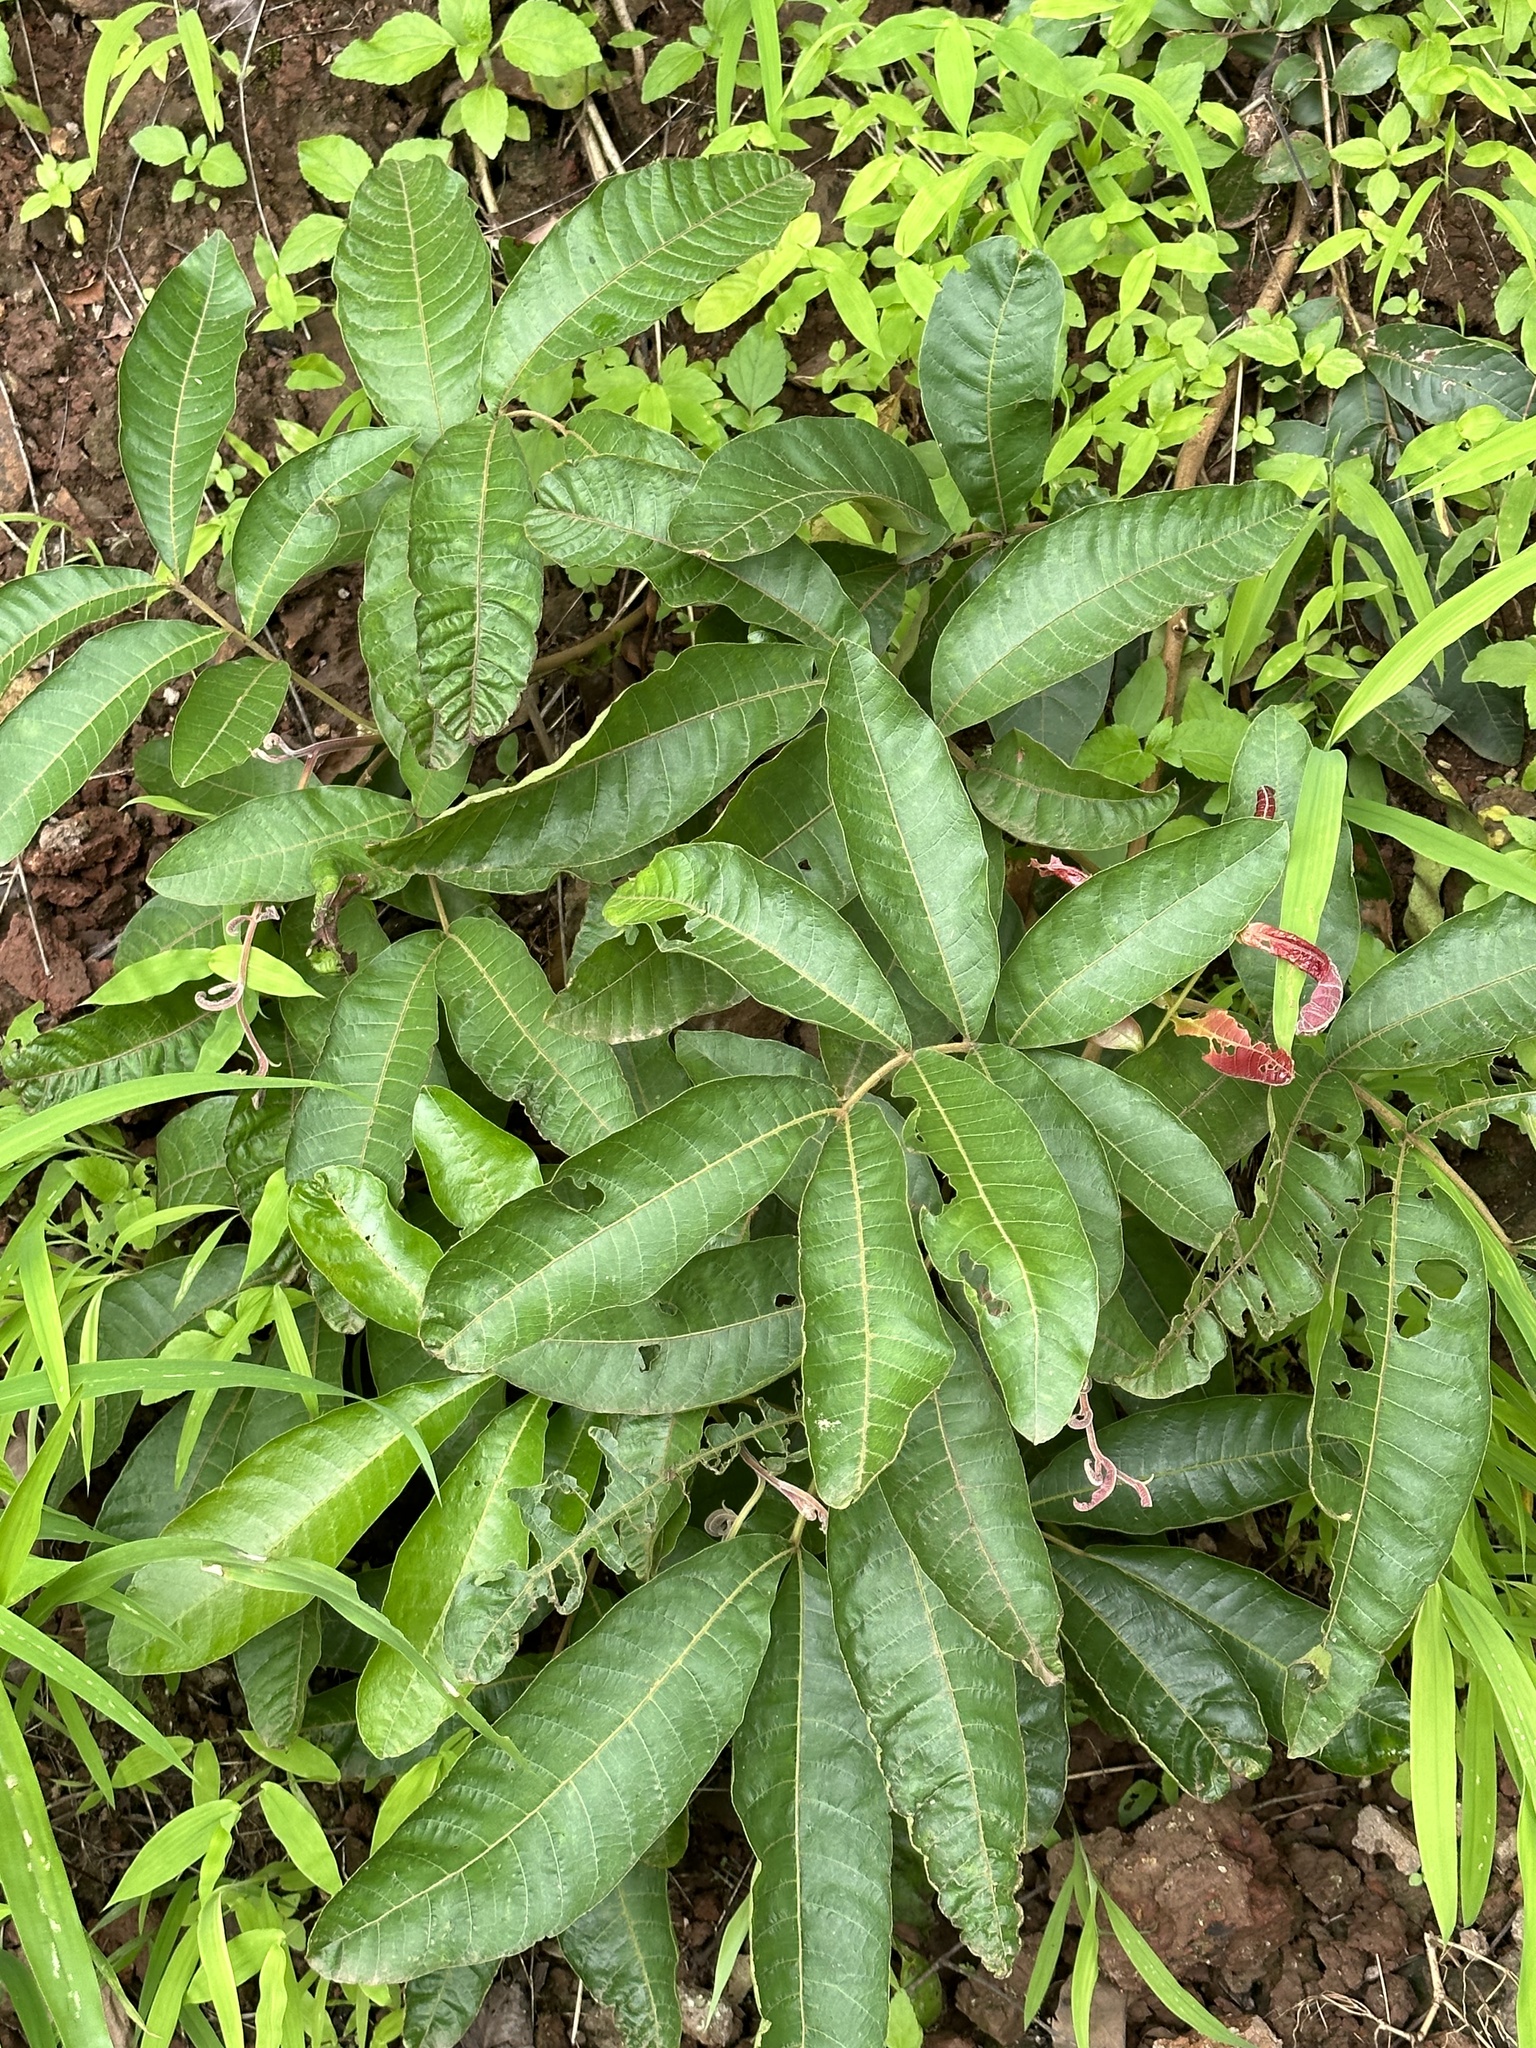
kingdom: Plantae
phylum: Tracheophyta
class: Magnoliopsida
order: Sapindales
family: Sapindaceae
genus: Schleichera
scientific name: Schleichera oleosa
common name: Malay lactree
